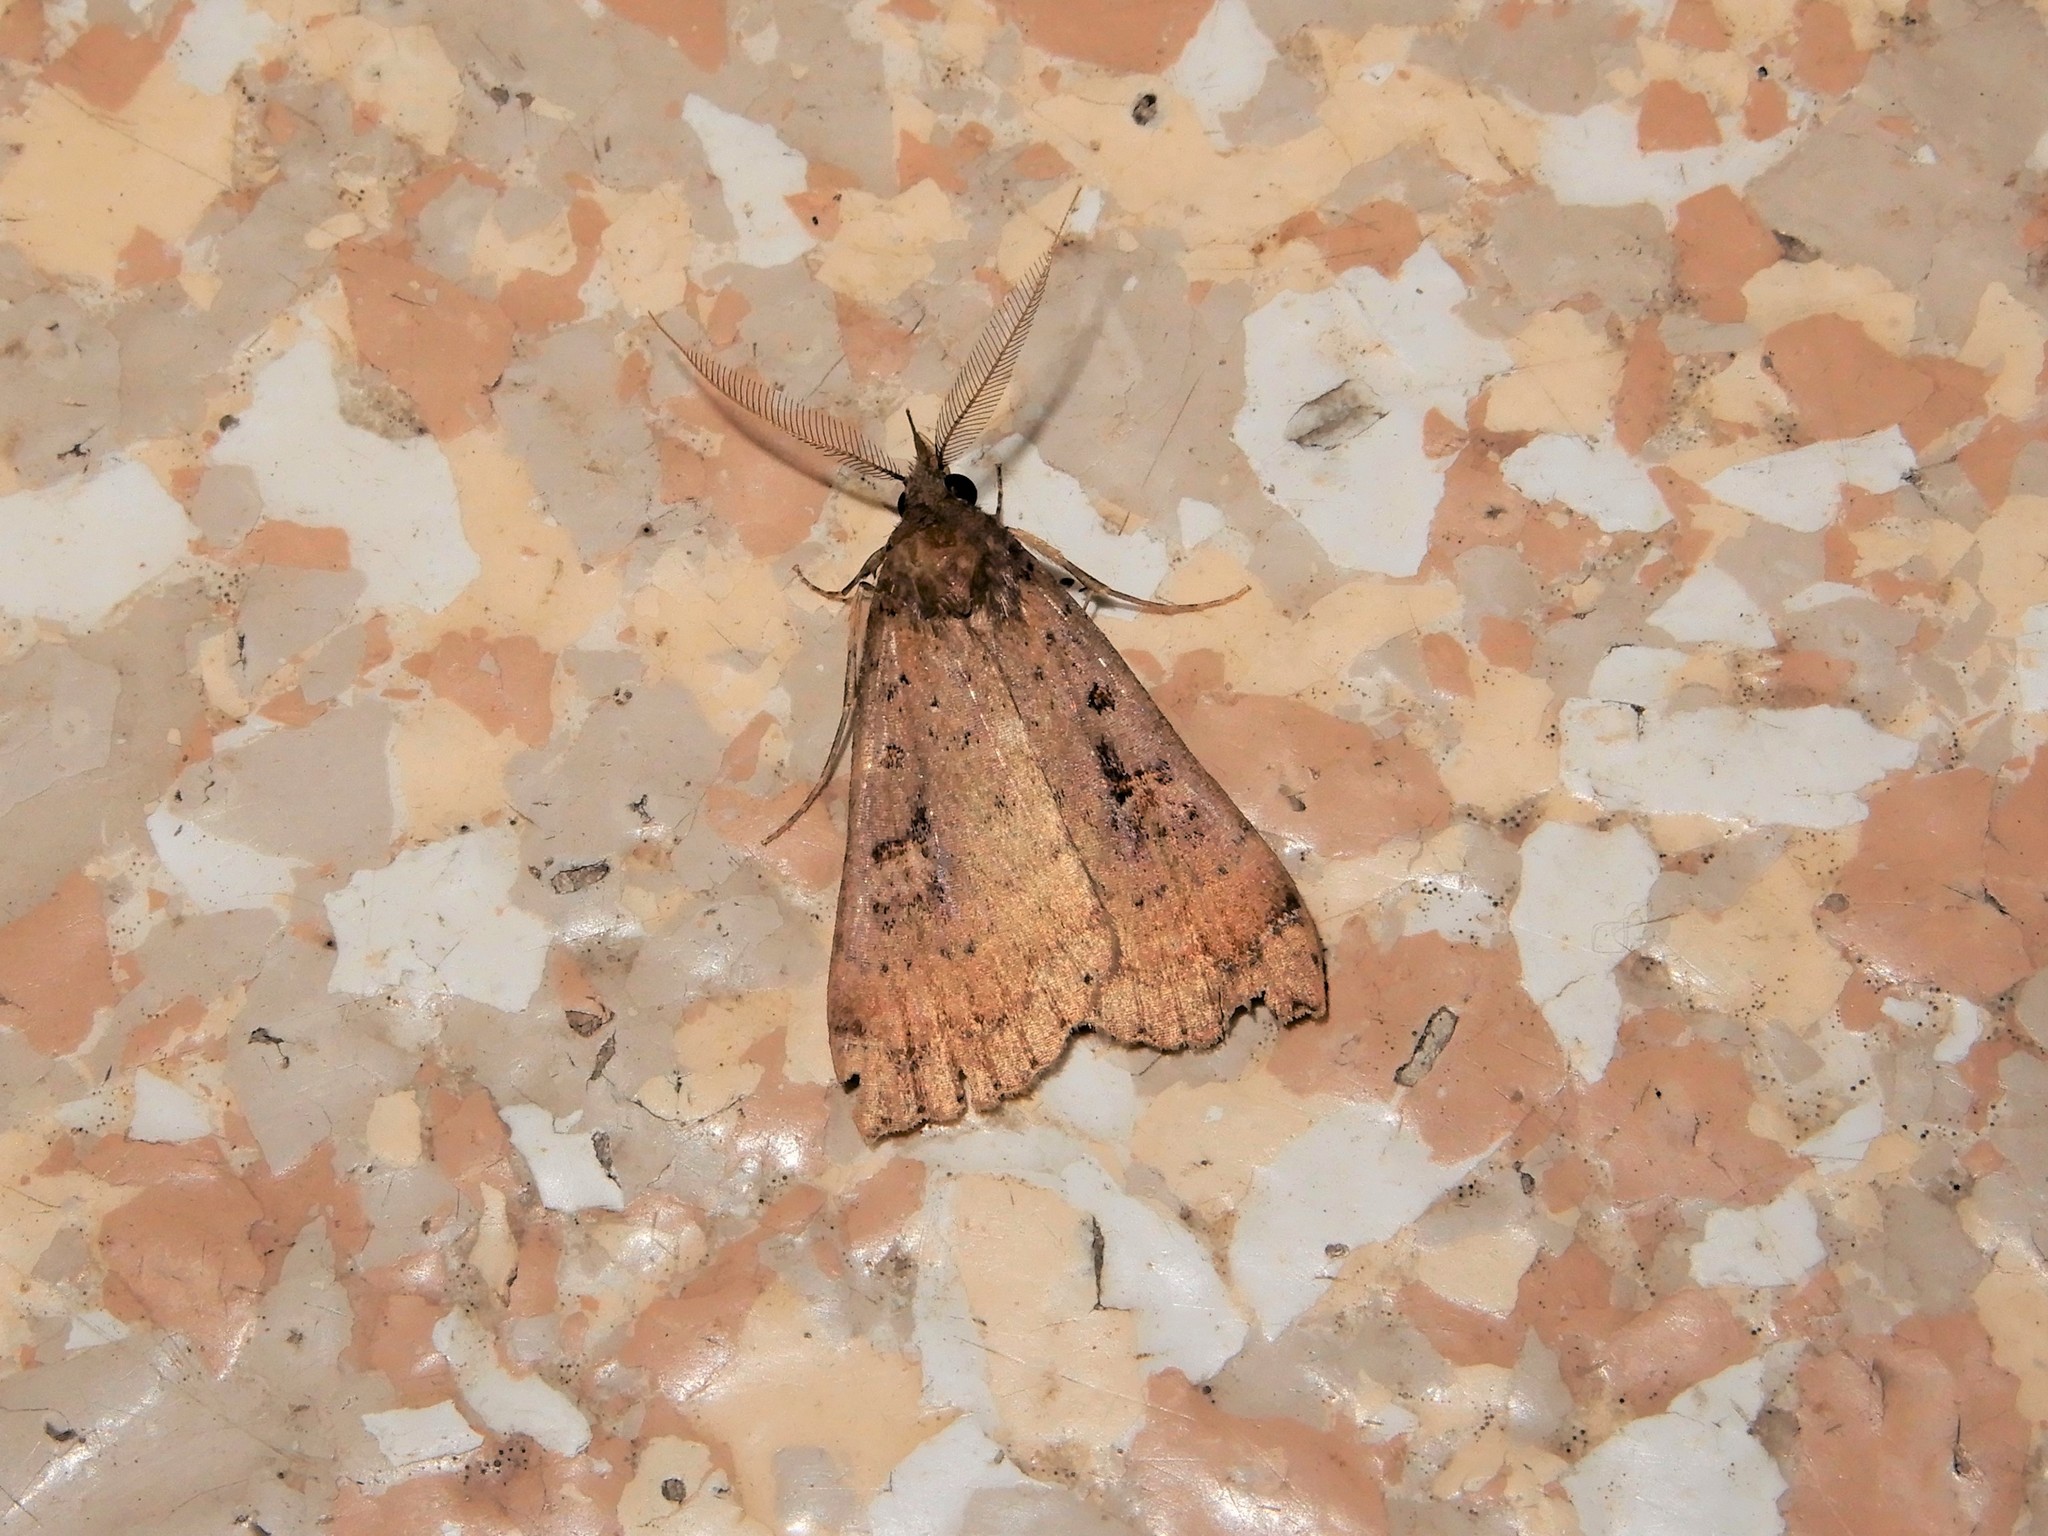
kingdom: Animalia
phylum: Arthropoda
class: Insecta
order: Lepidoptera
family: Erebidae
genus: Rhapsa
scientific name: Rhapsa scotosialis
